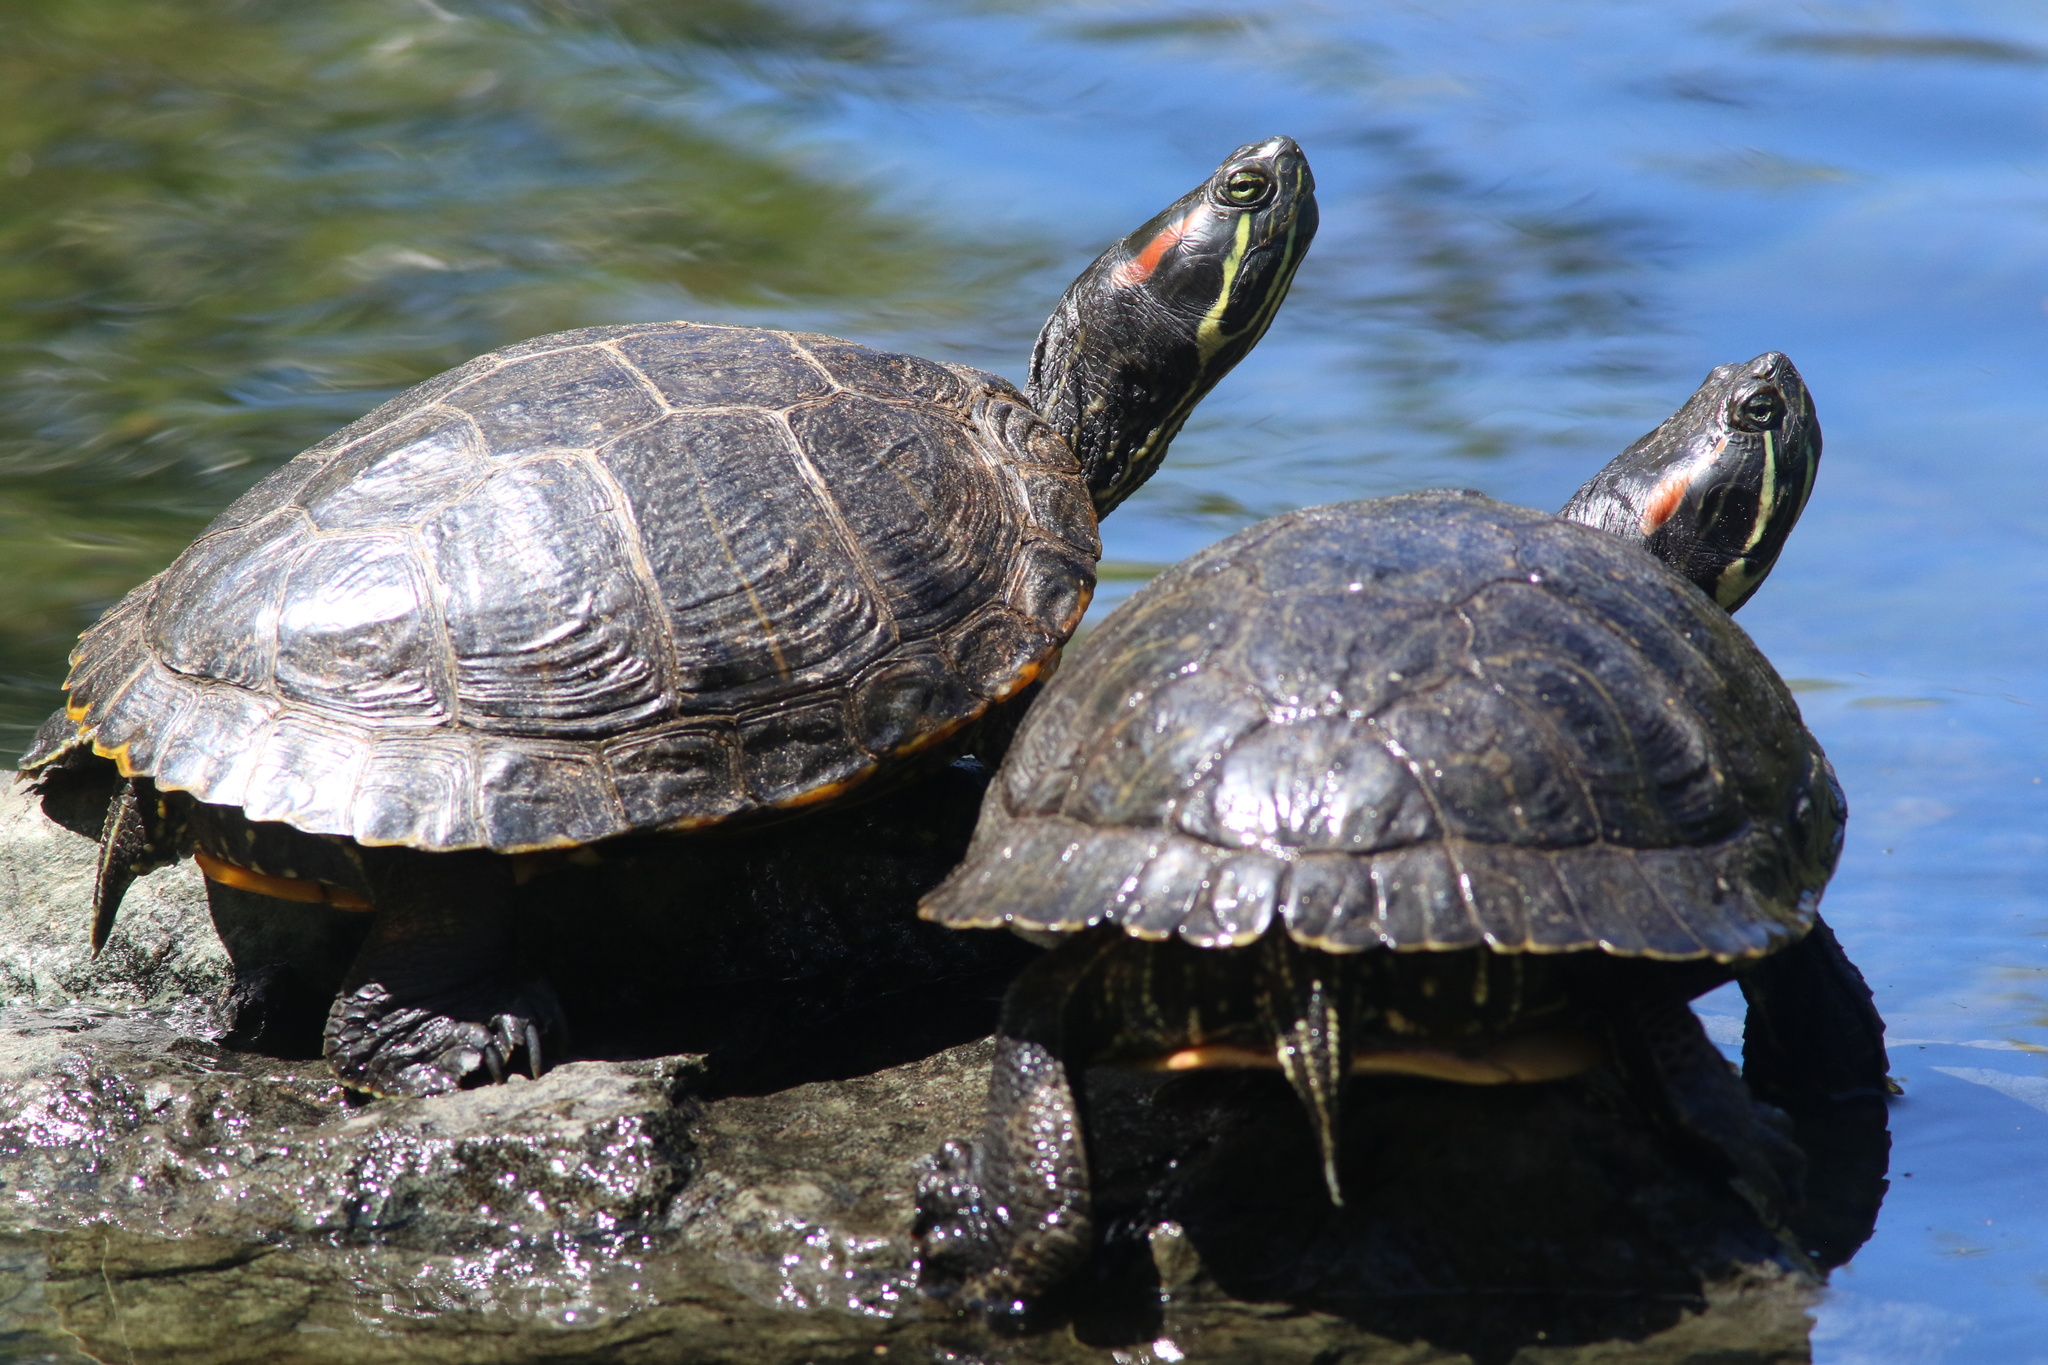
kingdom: Animalia
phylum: Chordata
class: Testudines
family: Emydidae
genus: Trachemys
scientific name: Trachemys scripta
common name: Slider
